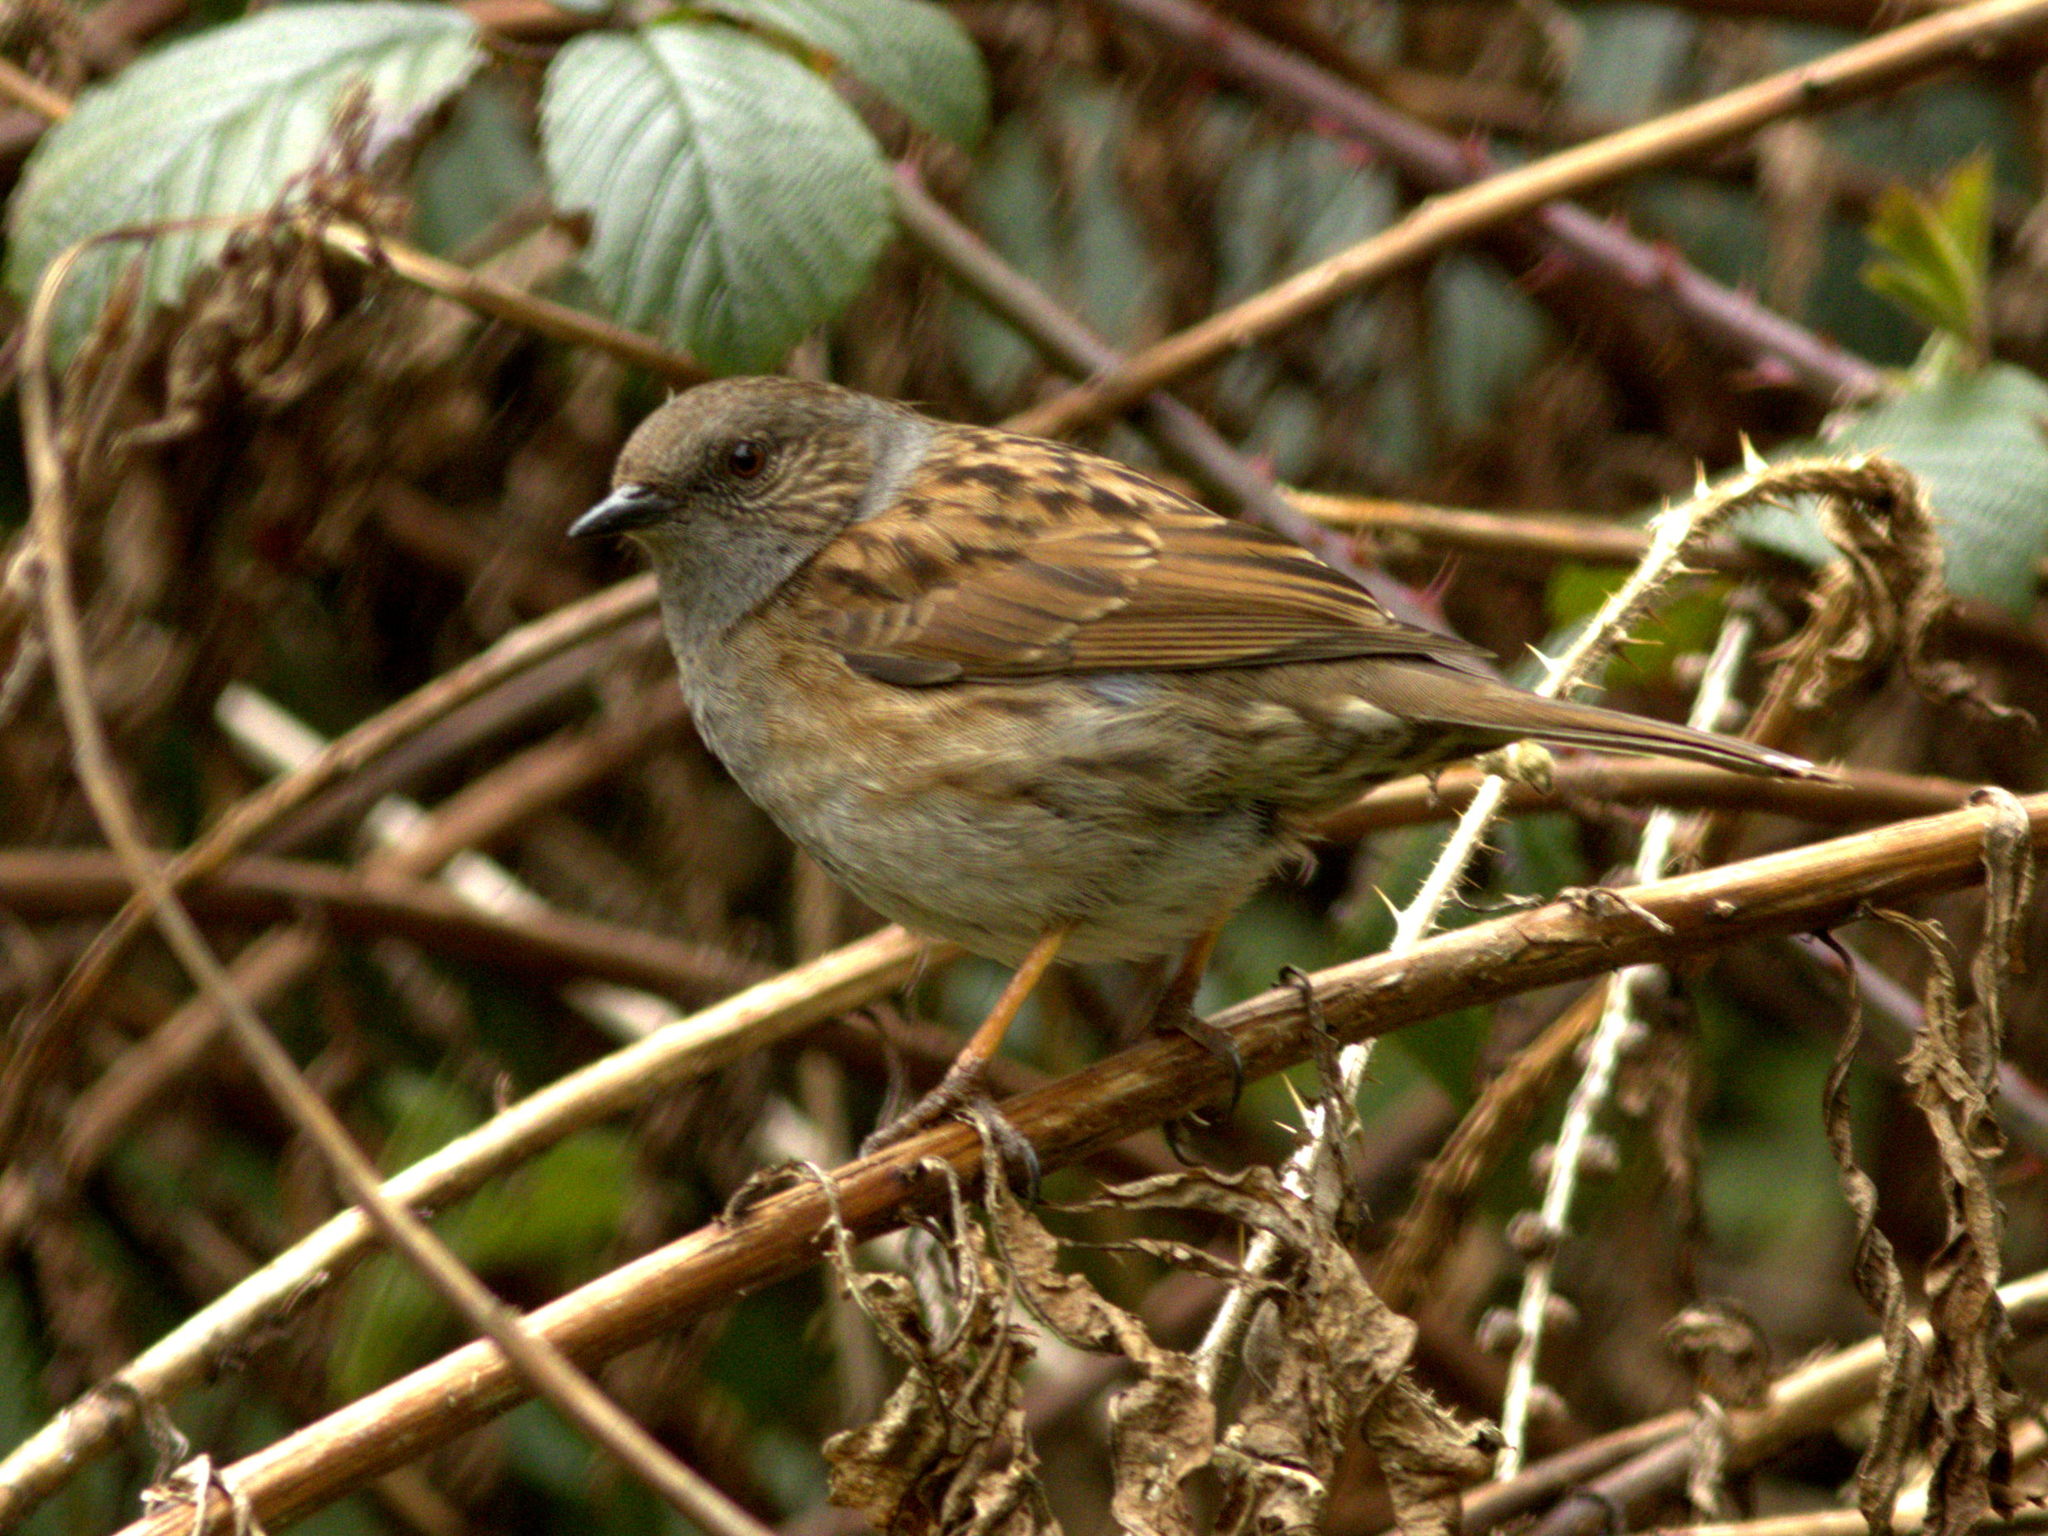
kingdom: Animalia
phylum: Chordata
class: Aves
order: Passeriformes
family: Prunellidae
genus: Prunella
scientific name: Prunella modularis
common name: Dunnock
